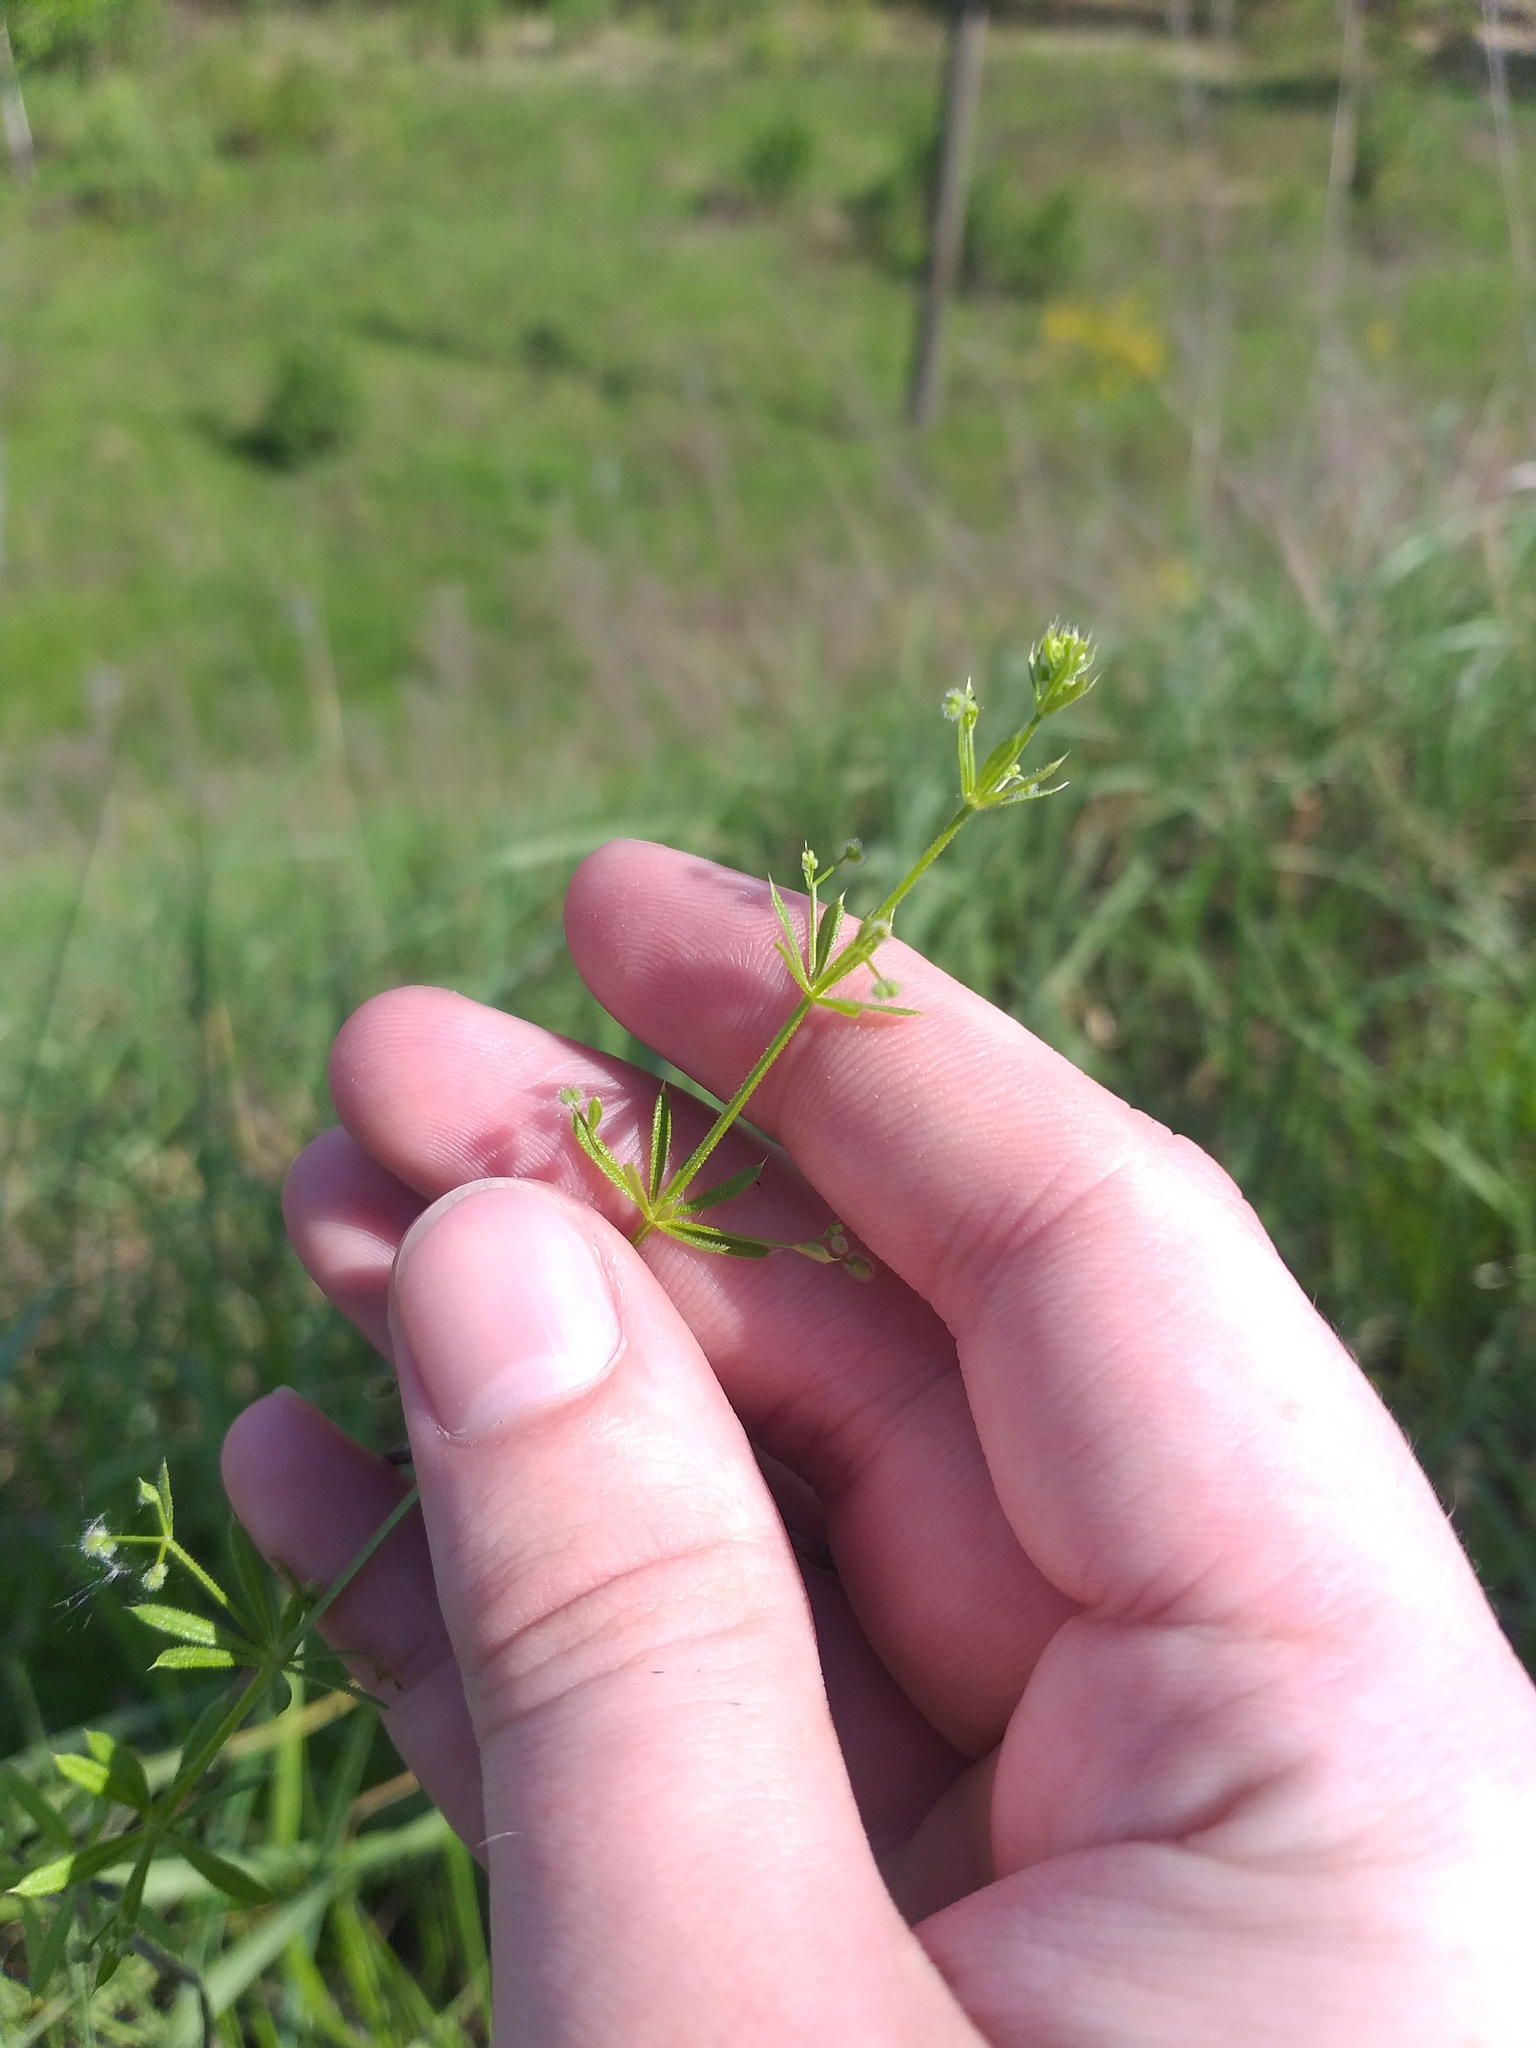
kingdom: Plantae
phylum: Tracheophyta
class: Magnoliopsida
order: Gentianales
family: Rubiaceae
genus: Galium
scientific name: Galium
